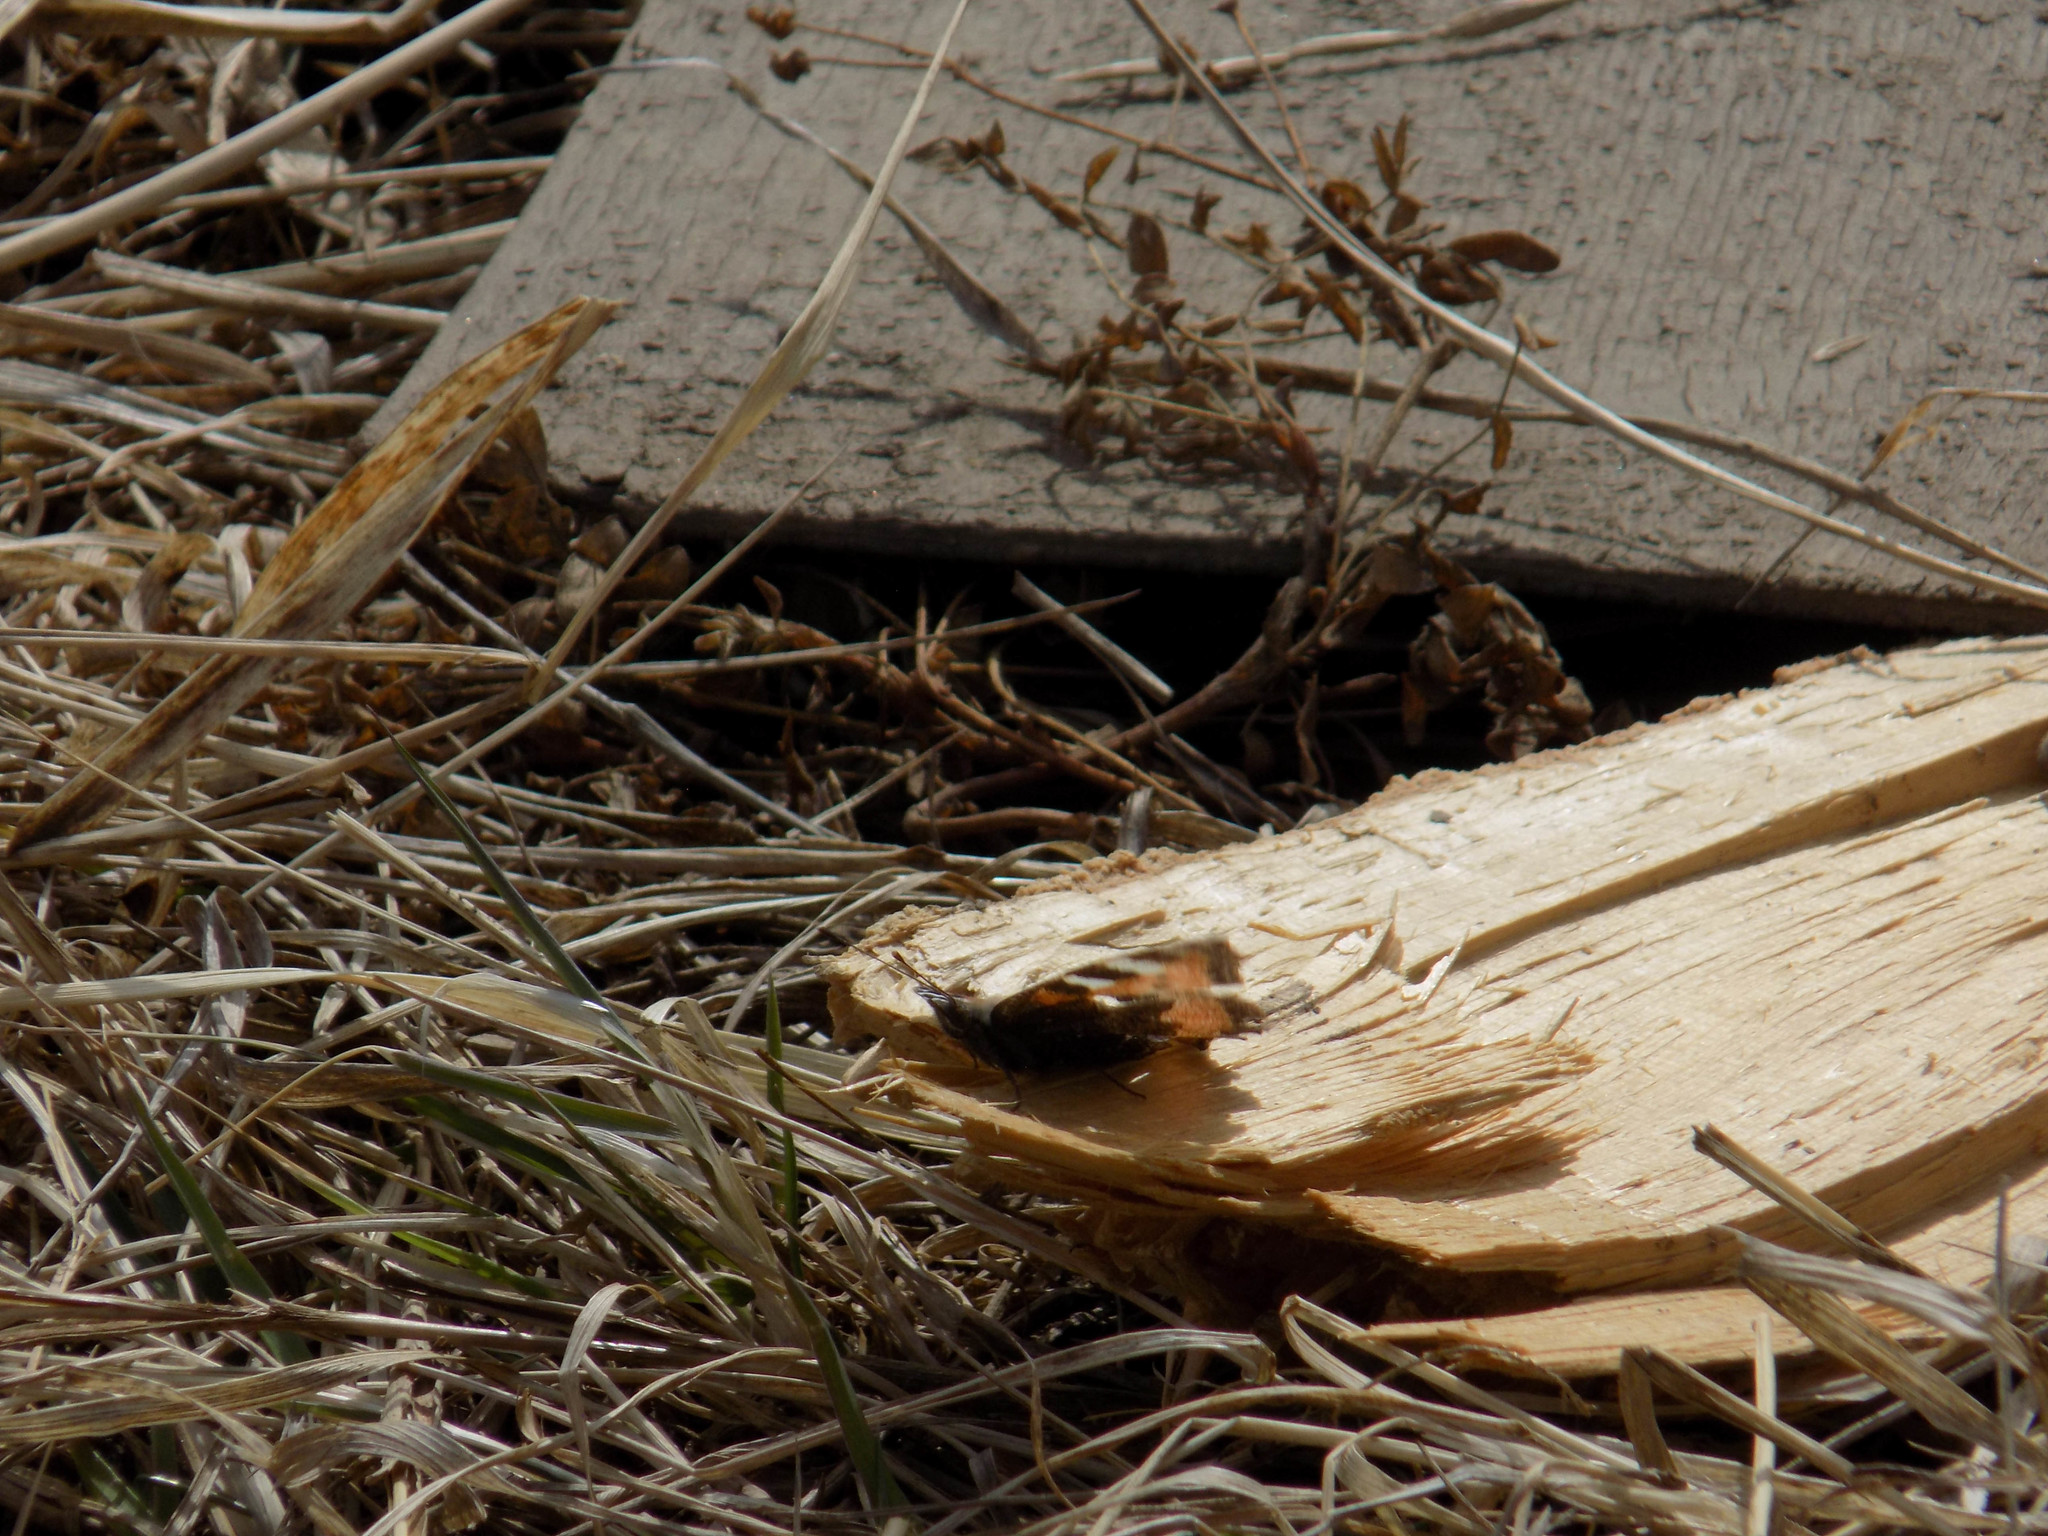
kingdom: Animalia
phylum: Arthropoda
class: Insecta
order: Lepidoptera
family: Nymphalidae
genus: Aglais
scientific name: Aglais urticae
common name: Small tortoiseshell
